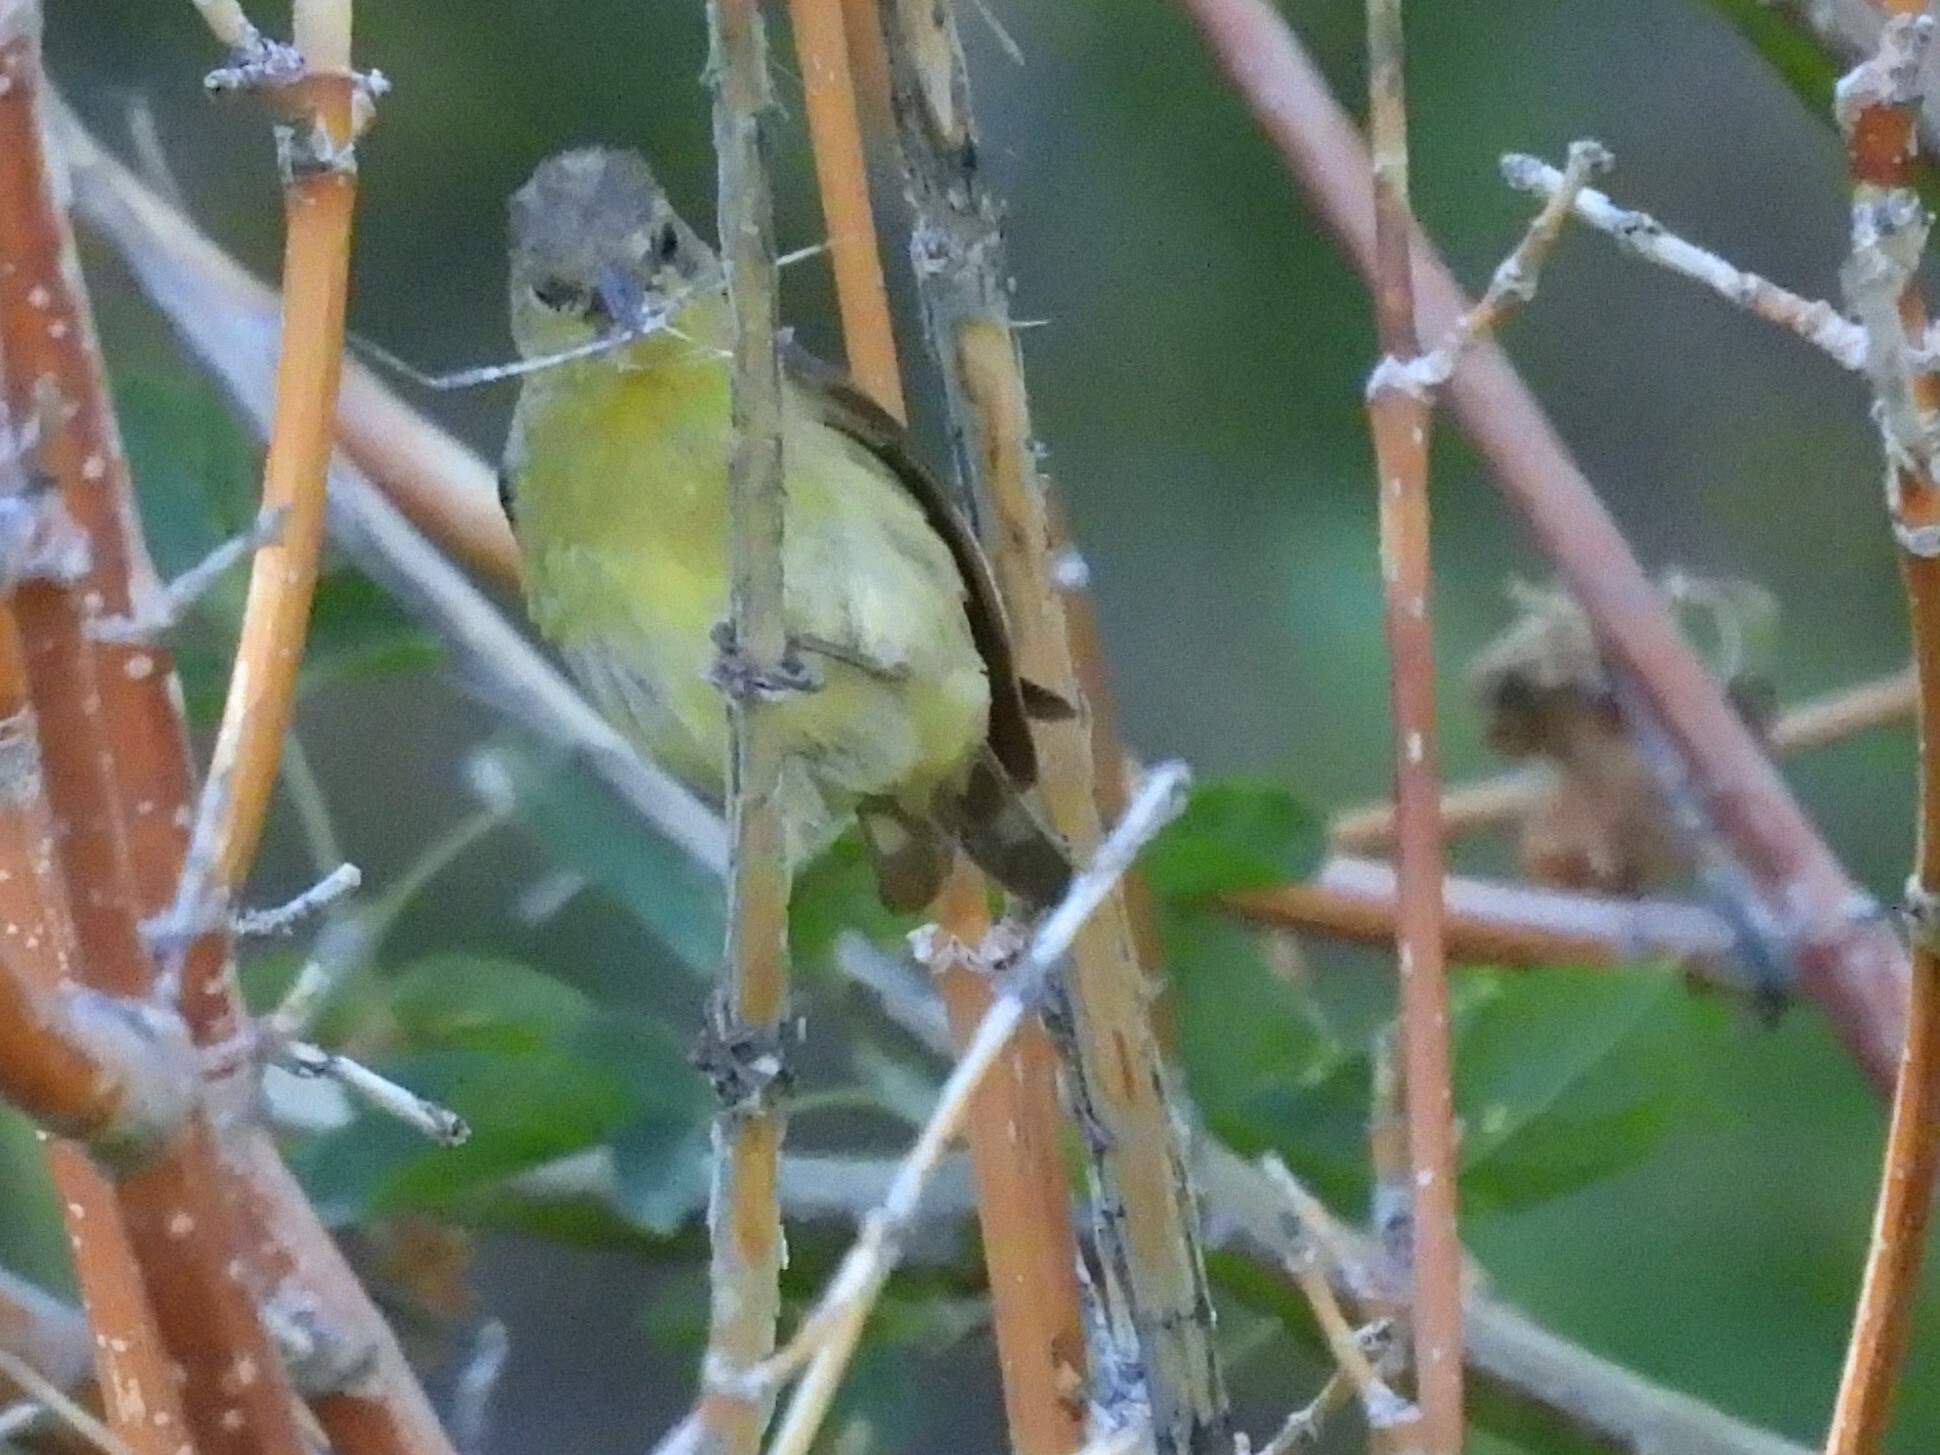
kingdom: Animalia
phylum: Chordata
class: Aves
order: Passeriformes
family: Fringillidae
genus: Spinus
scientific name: Spinus psaltria
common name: Lesser goldfinch
